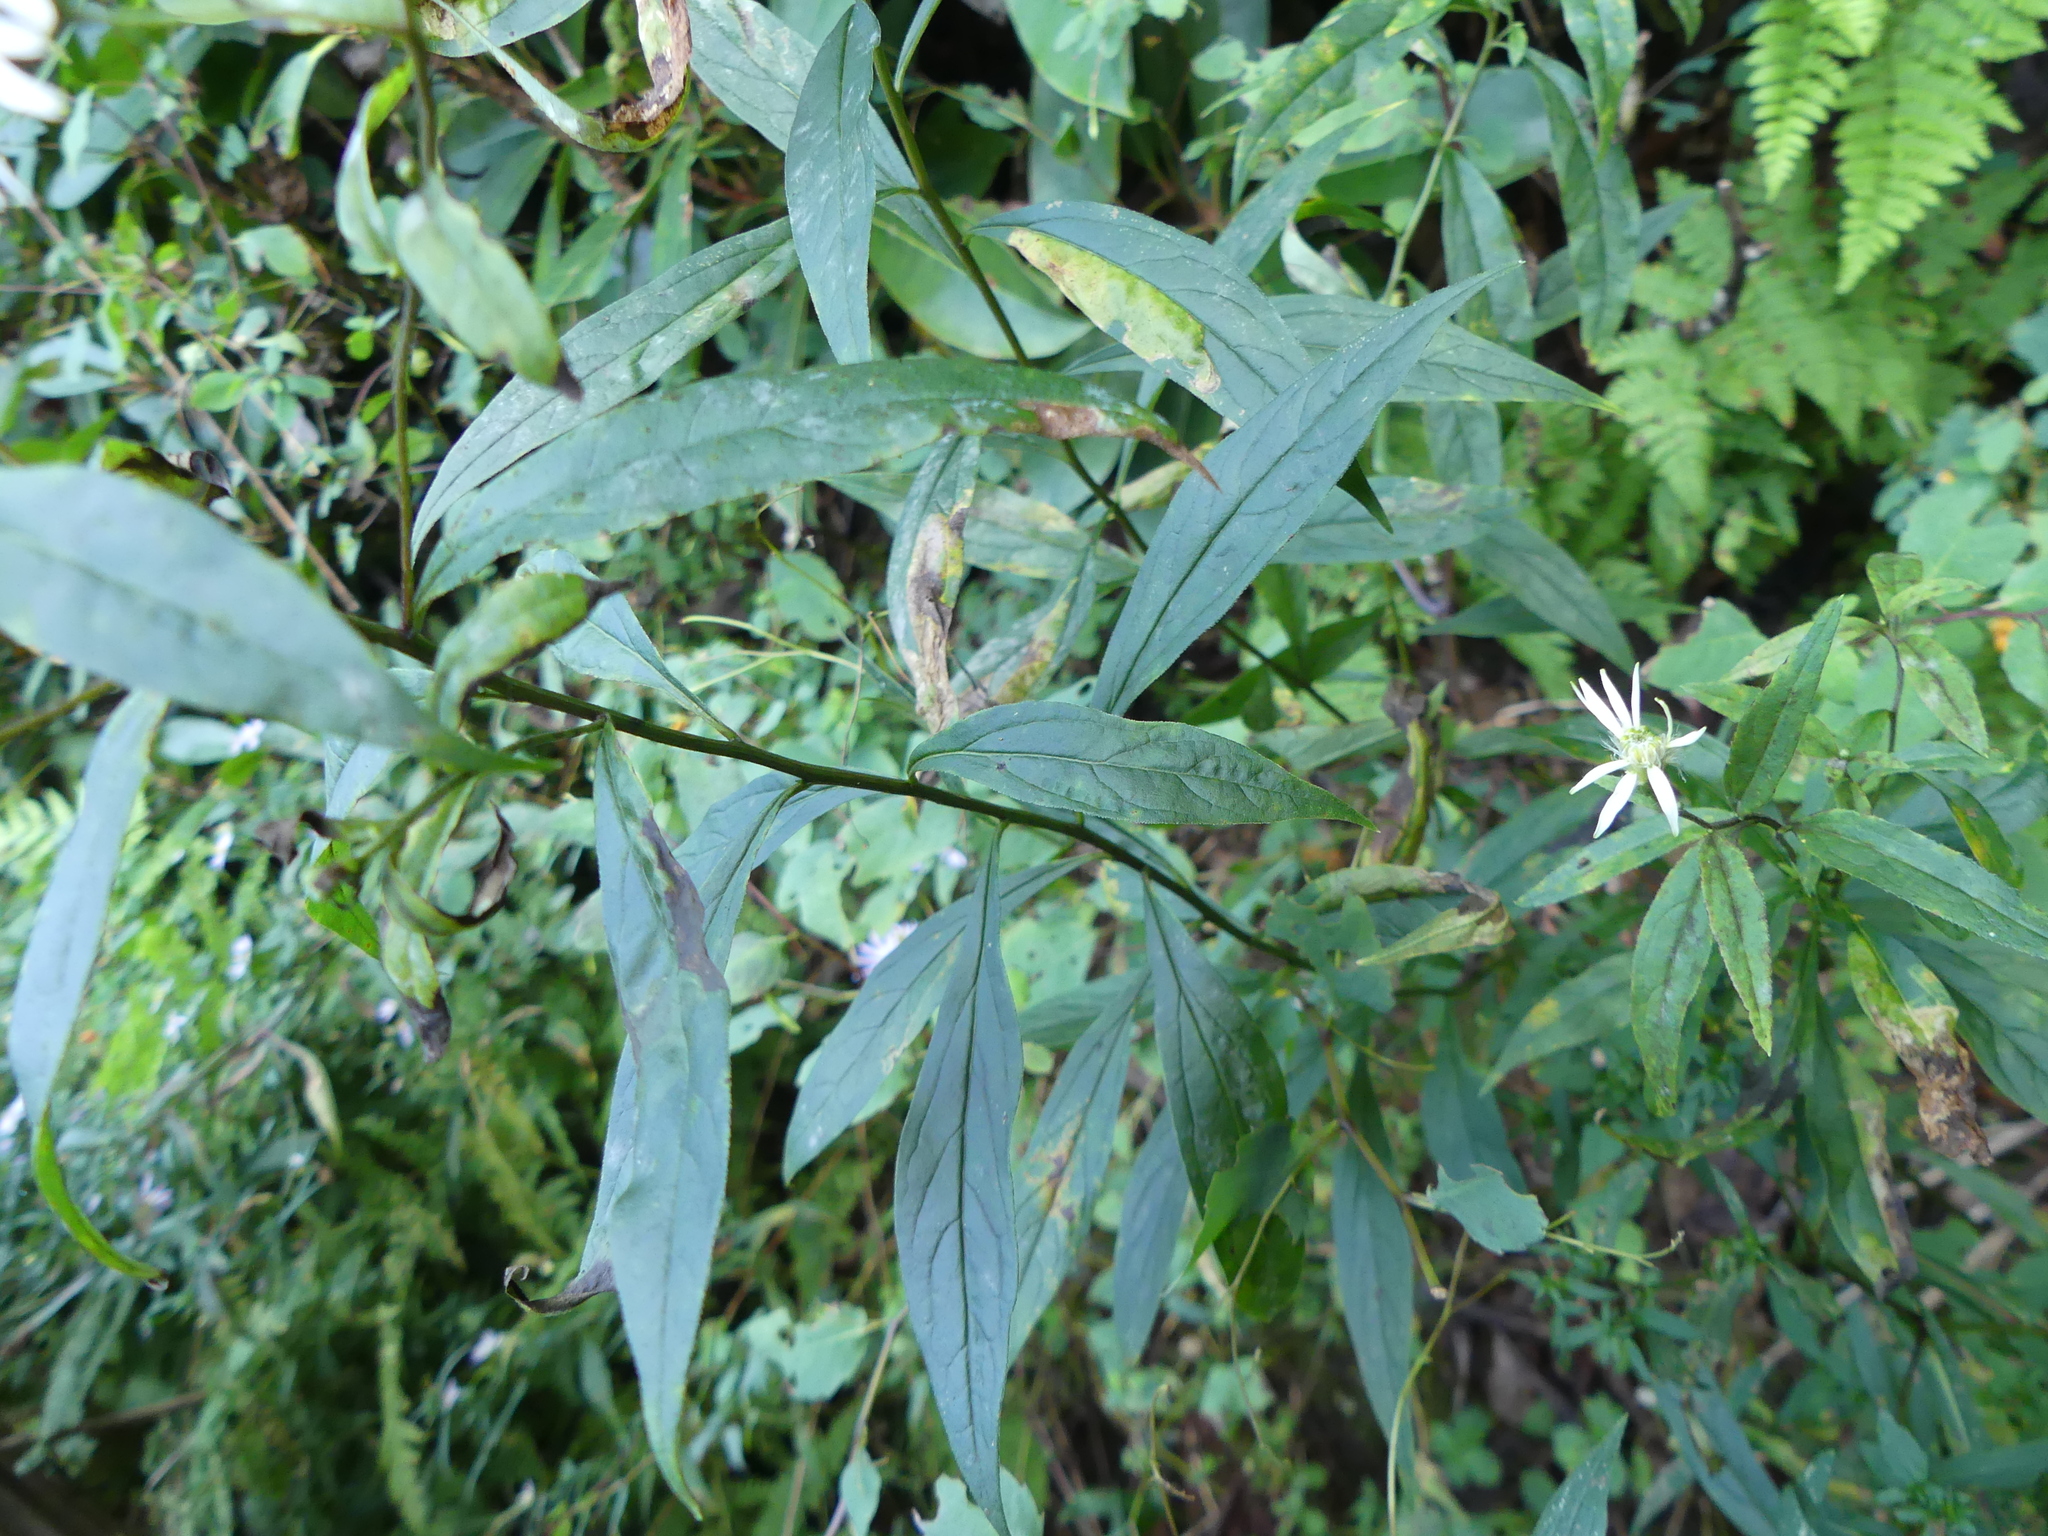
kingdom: Plantae
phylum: Tracheophyta
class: Magnoliopsida
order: Asterales
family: Asteraceae
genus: Doellingeria
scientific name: Doellingeria umbellata
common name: Flat-top white aster
